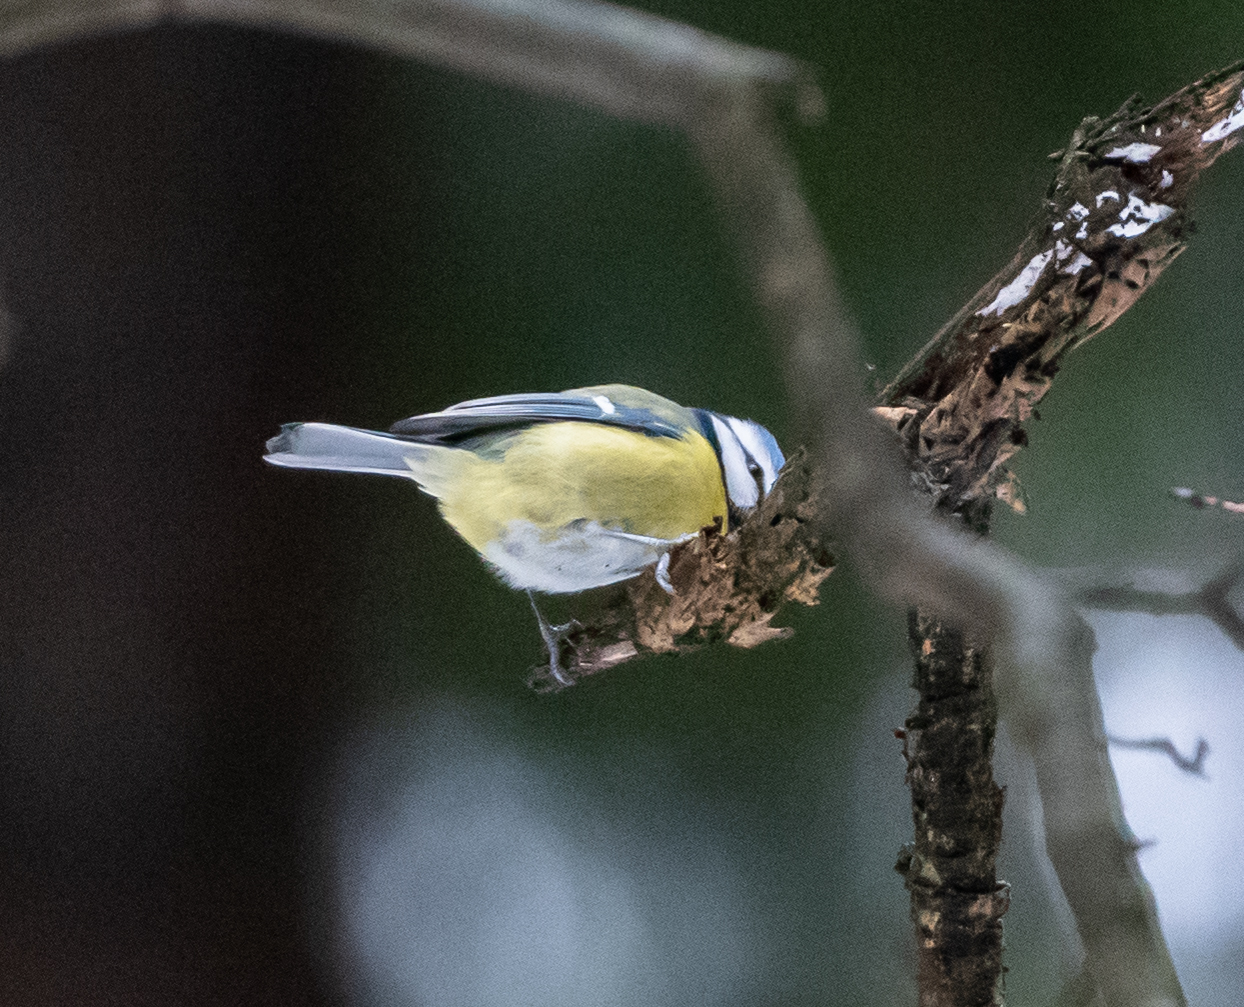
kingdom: Animalia
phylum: Chordata
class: Aves
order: Passeriformes
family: Paridae
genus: Cyanistes
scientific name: Cyanistes caeruleus
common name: Eurasian blue tit
